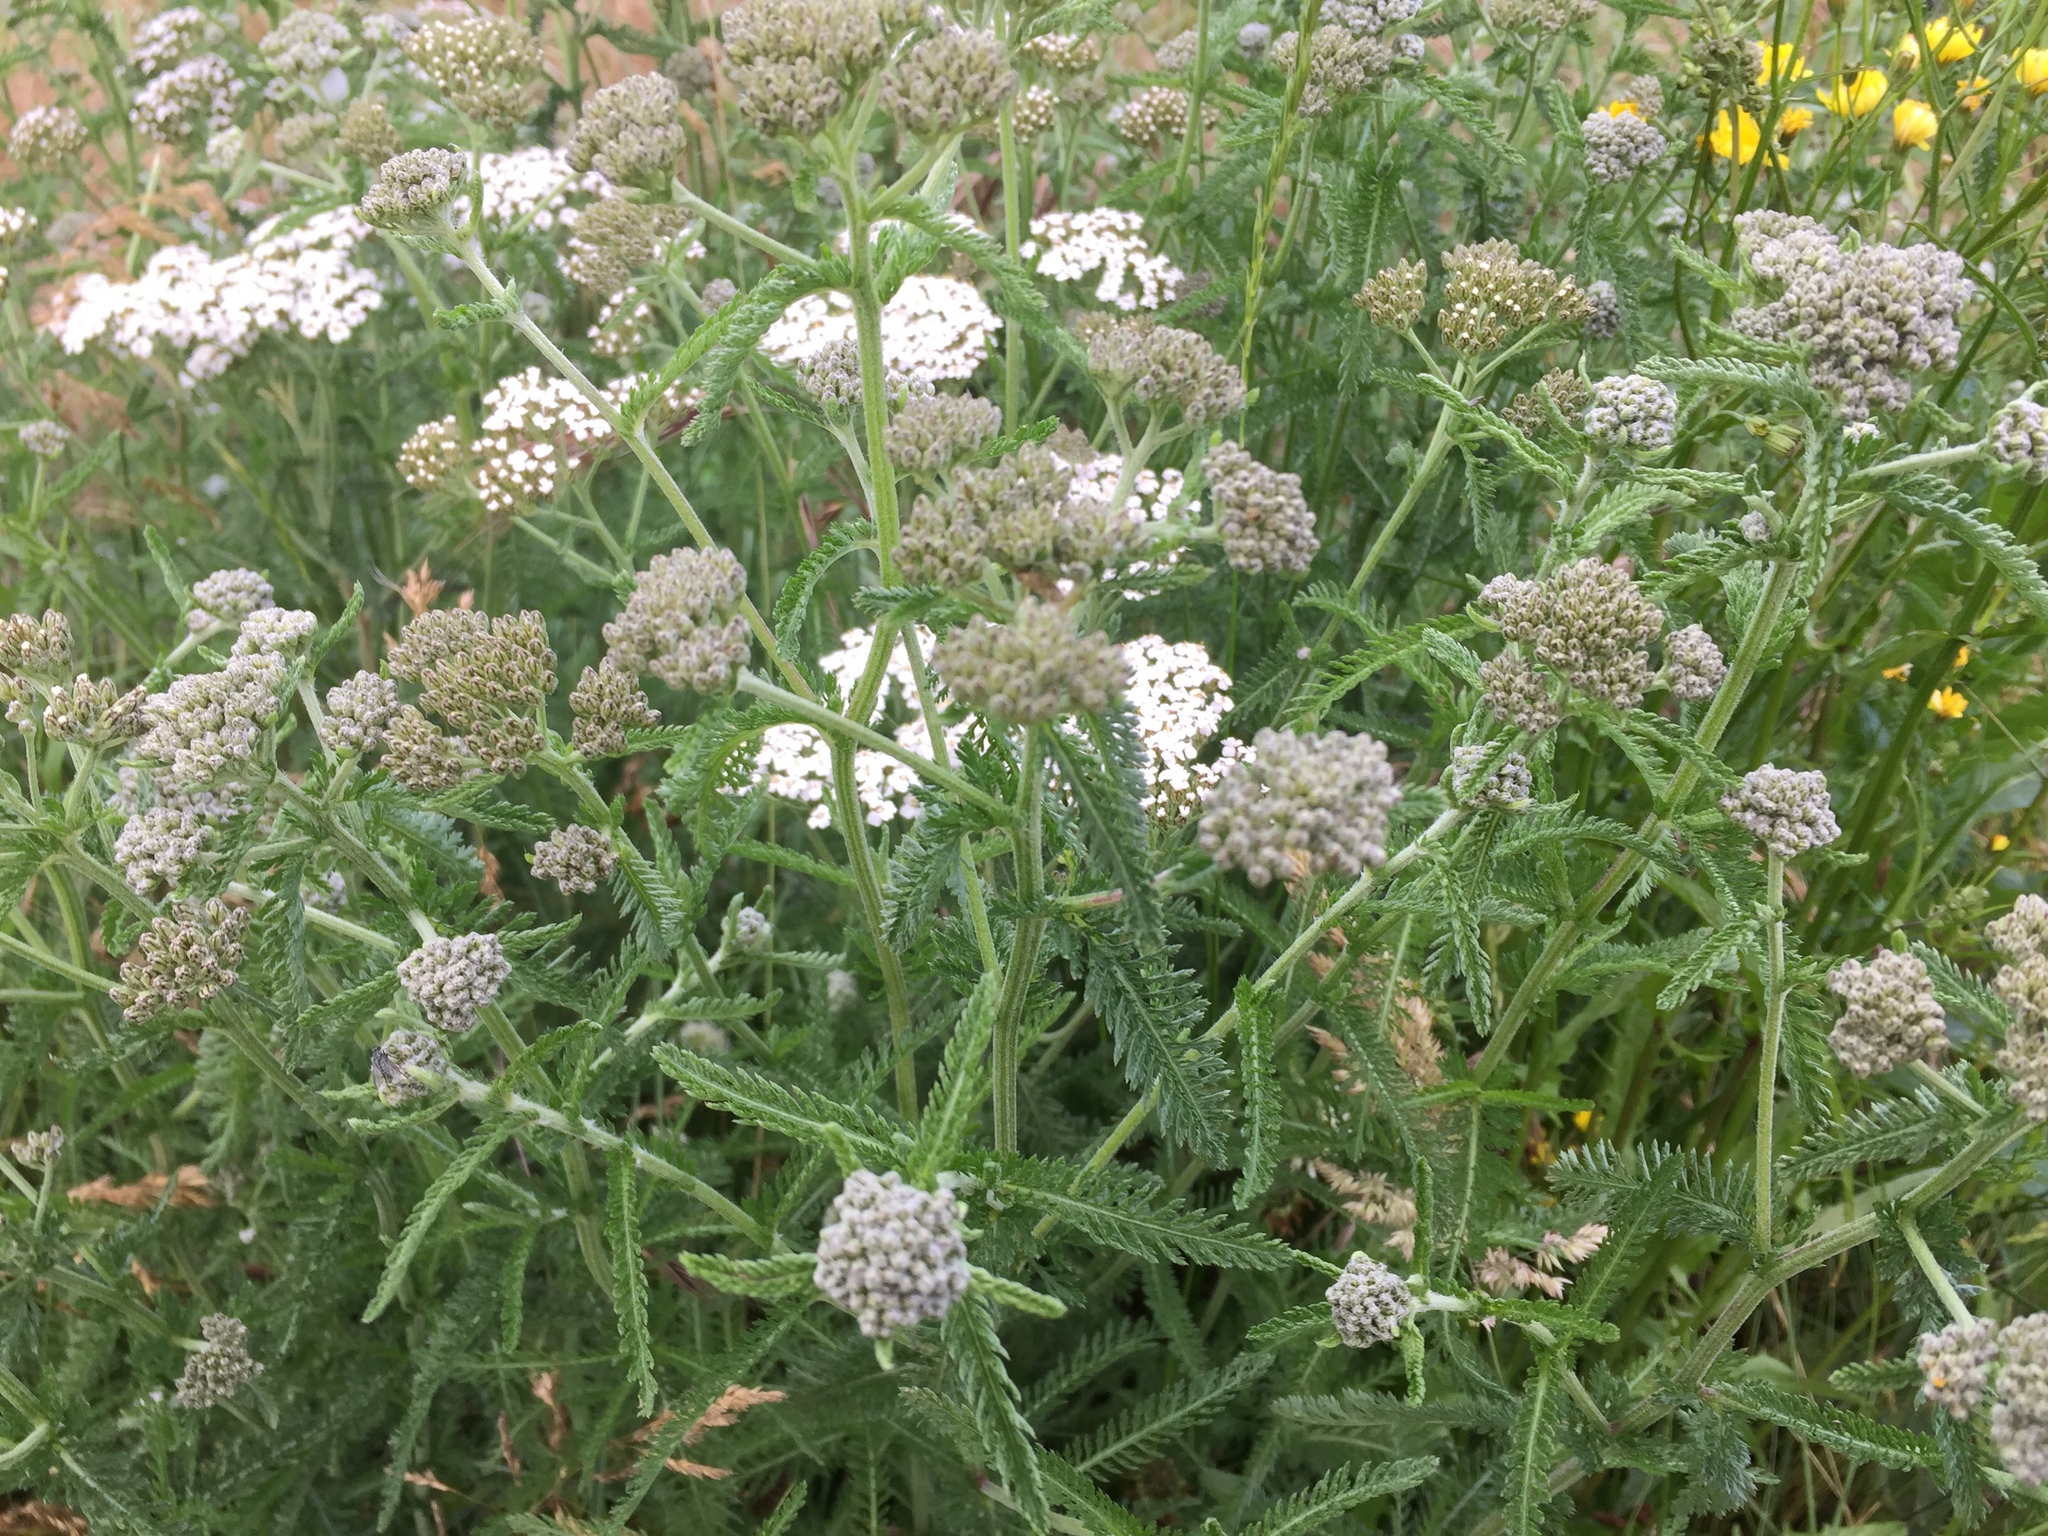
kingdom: Plantae
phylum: Tracheophyta
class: Magnoliopsida
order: Asterales
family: Asteraceae
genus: Achillea
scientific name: Achillea millefolium
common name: Yarrow
